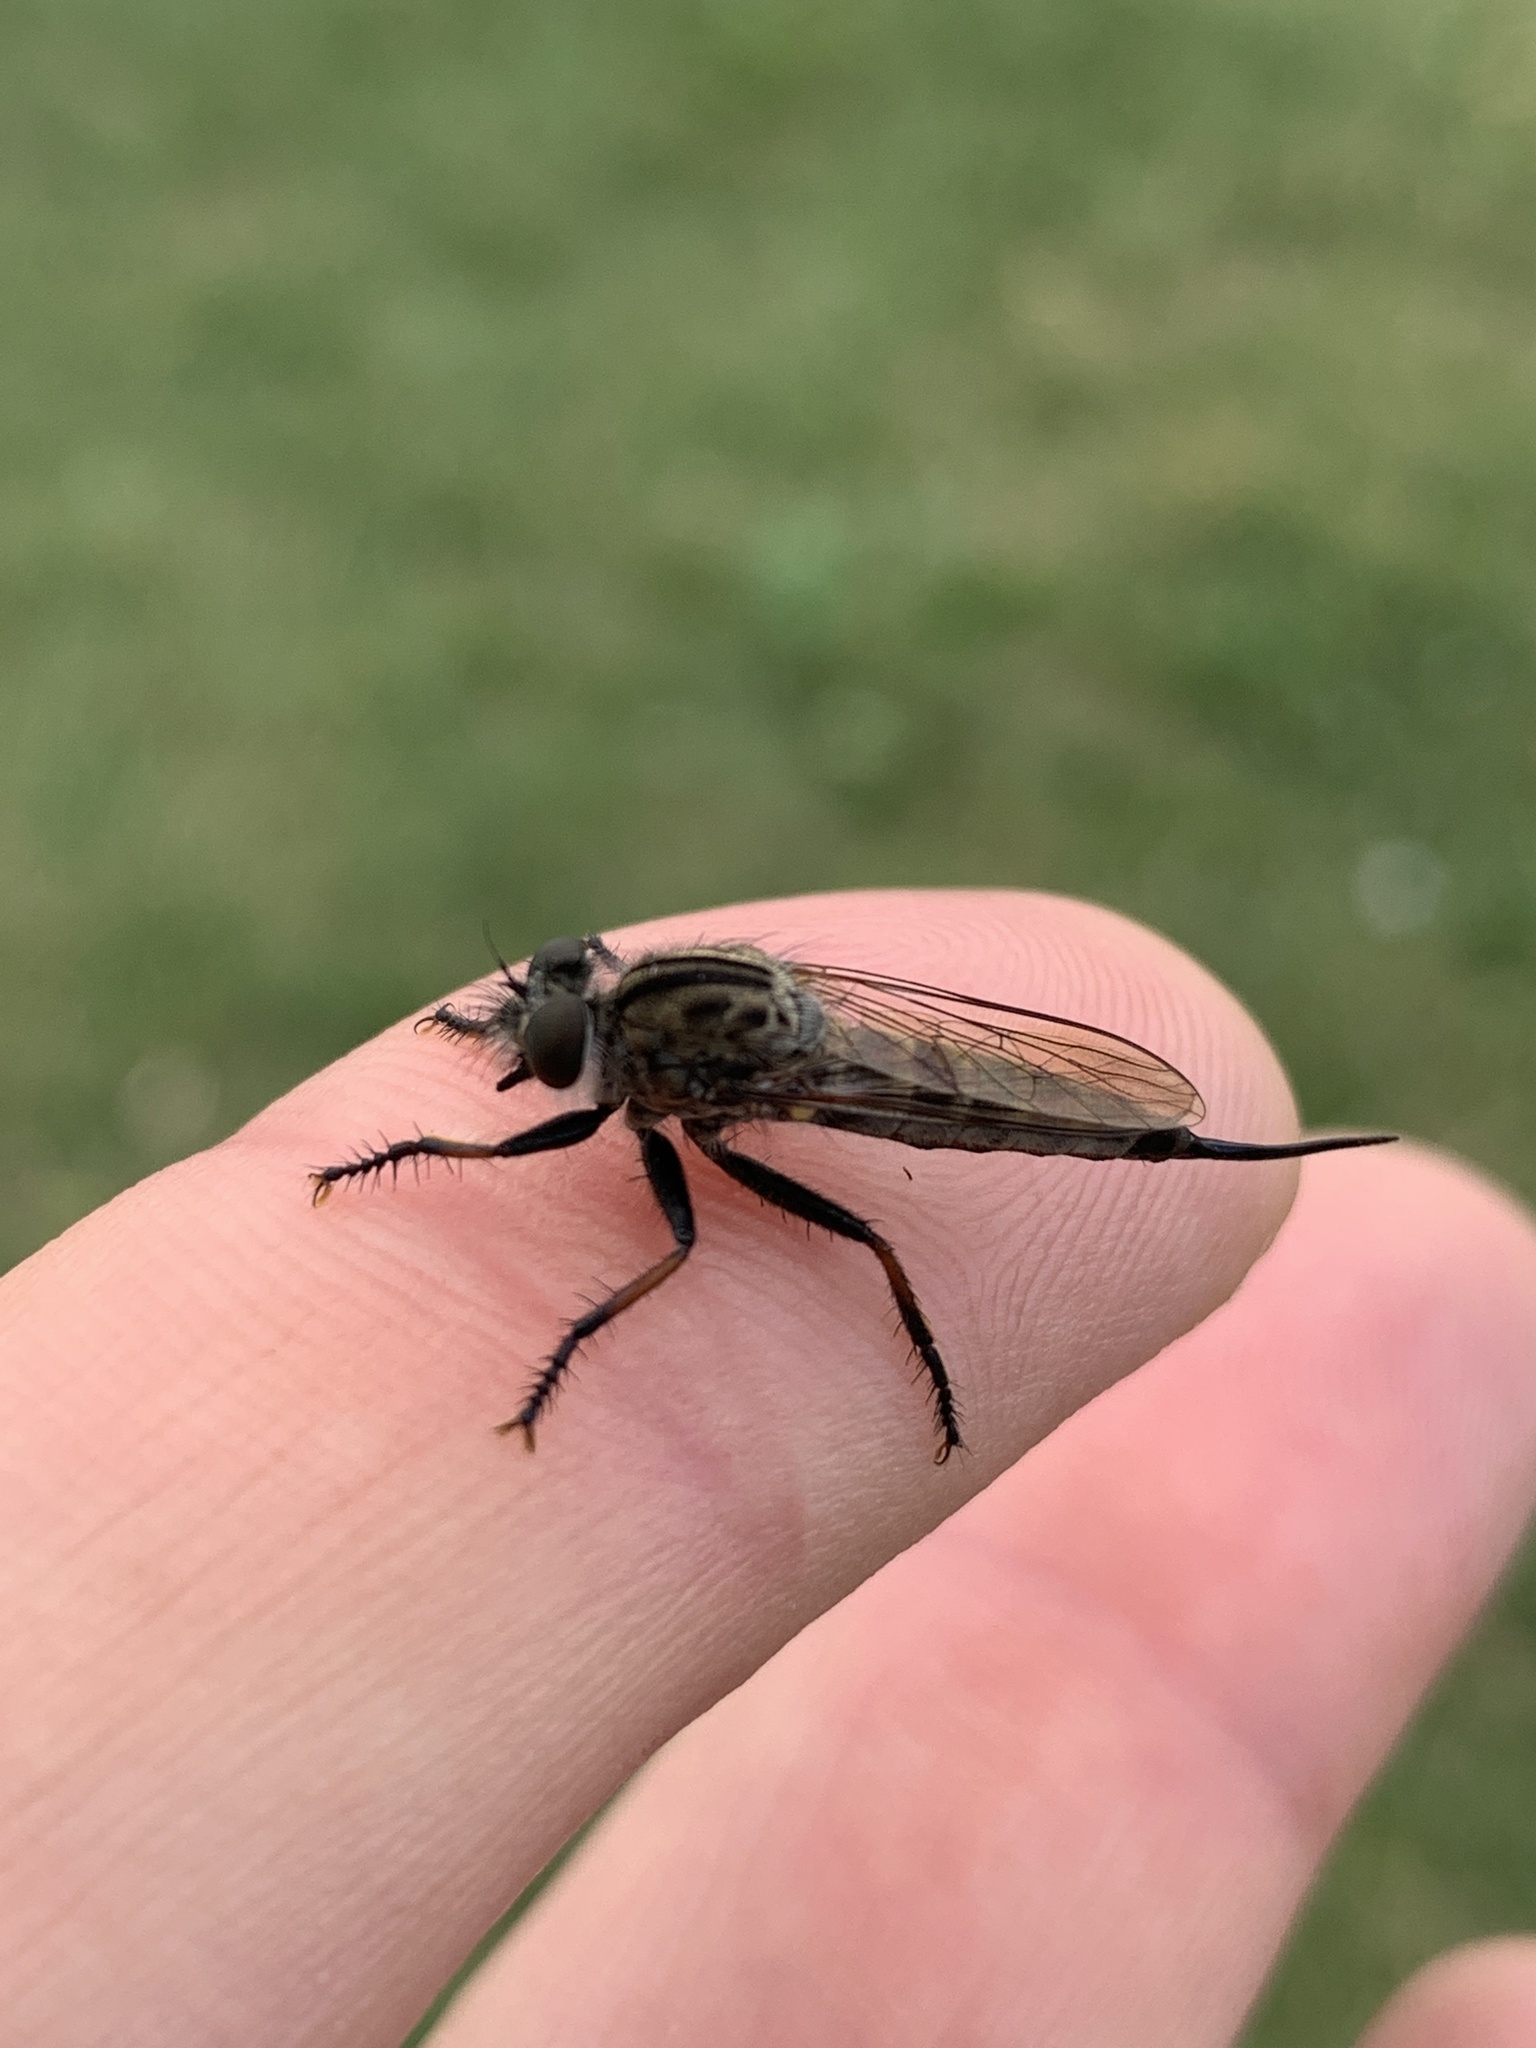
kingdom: Animalia
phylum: Arthropoda
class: Insecta
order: Diptera
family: Asilidae
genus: Efferia
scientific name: Efferia aestuans
